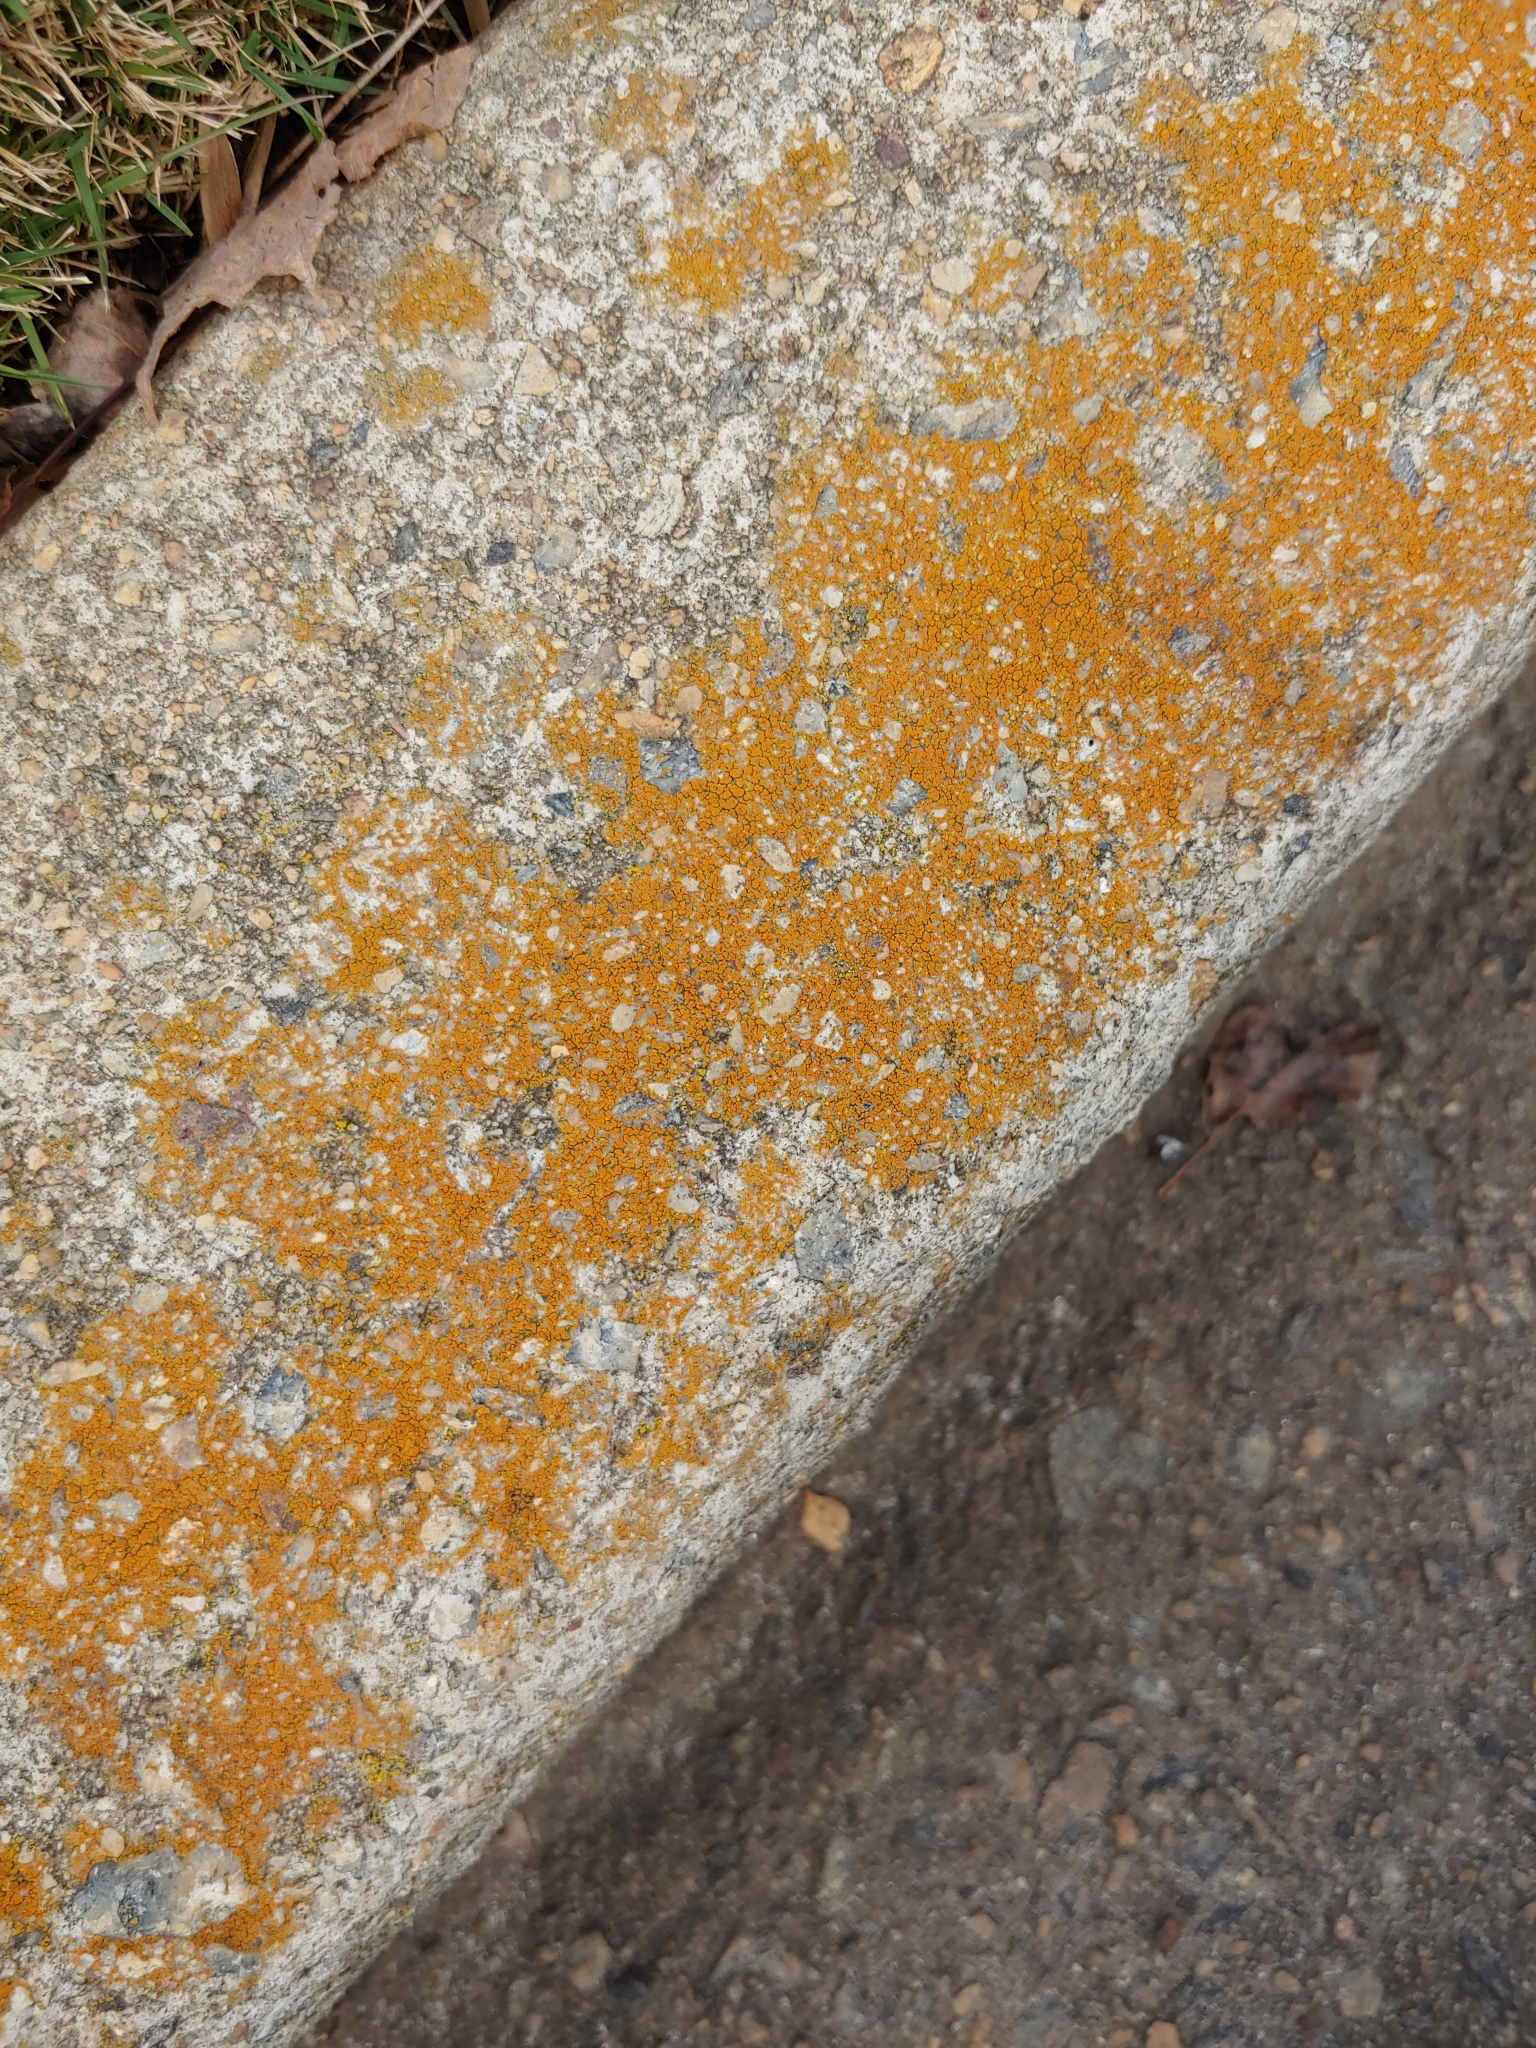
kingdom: Fungi
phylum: Ascomycota
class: Lecanoromycetes
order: Teloschistales
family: Teloschistaceae
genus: Xanthocarpia
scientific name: Xanthocarpia feracissima
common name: Sidewalk firedot
